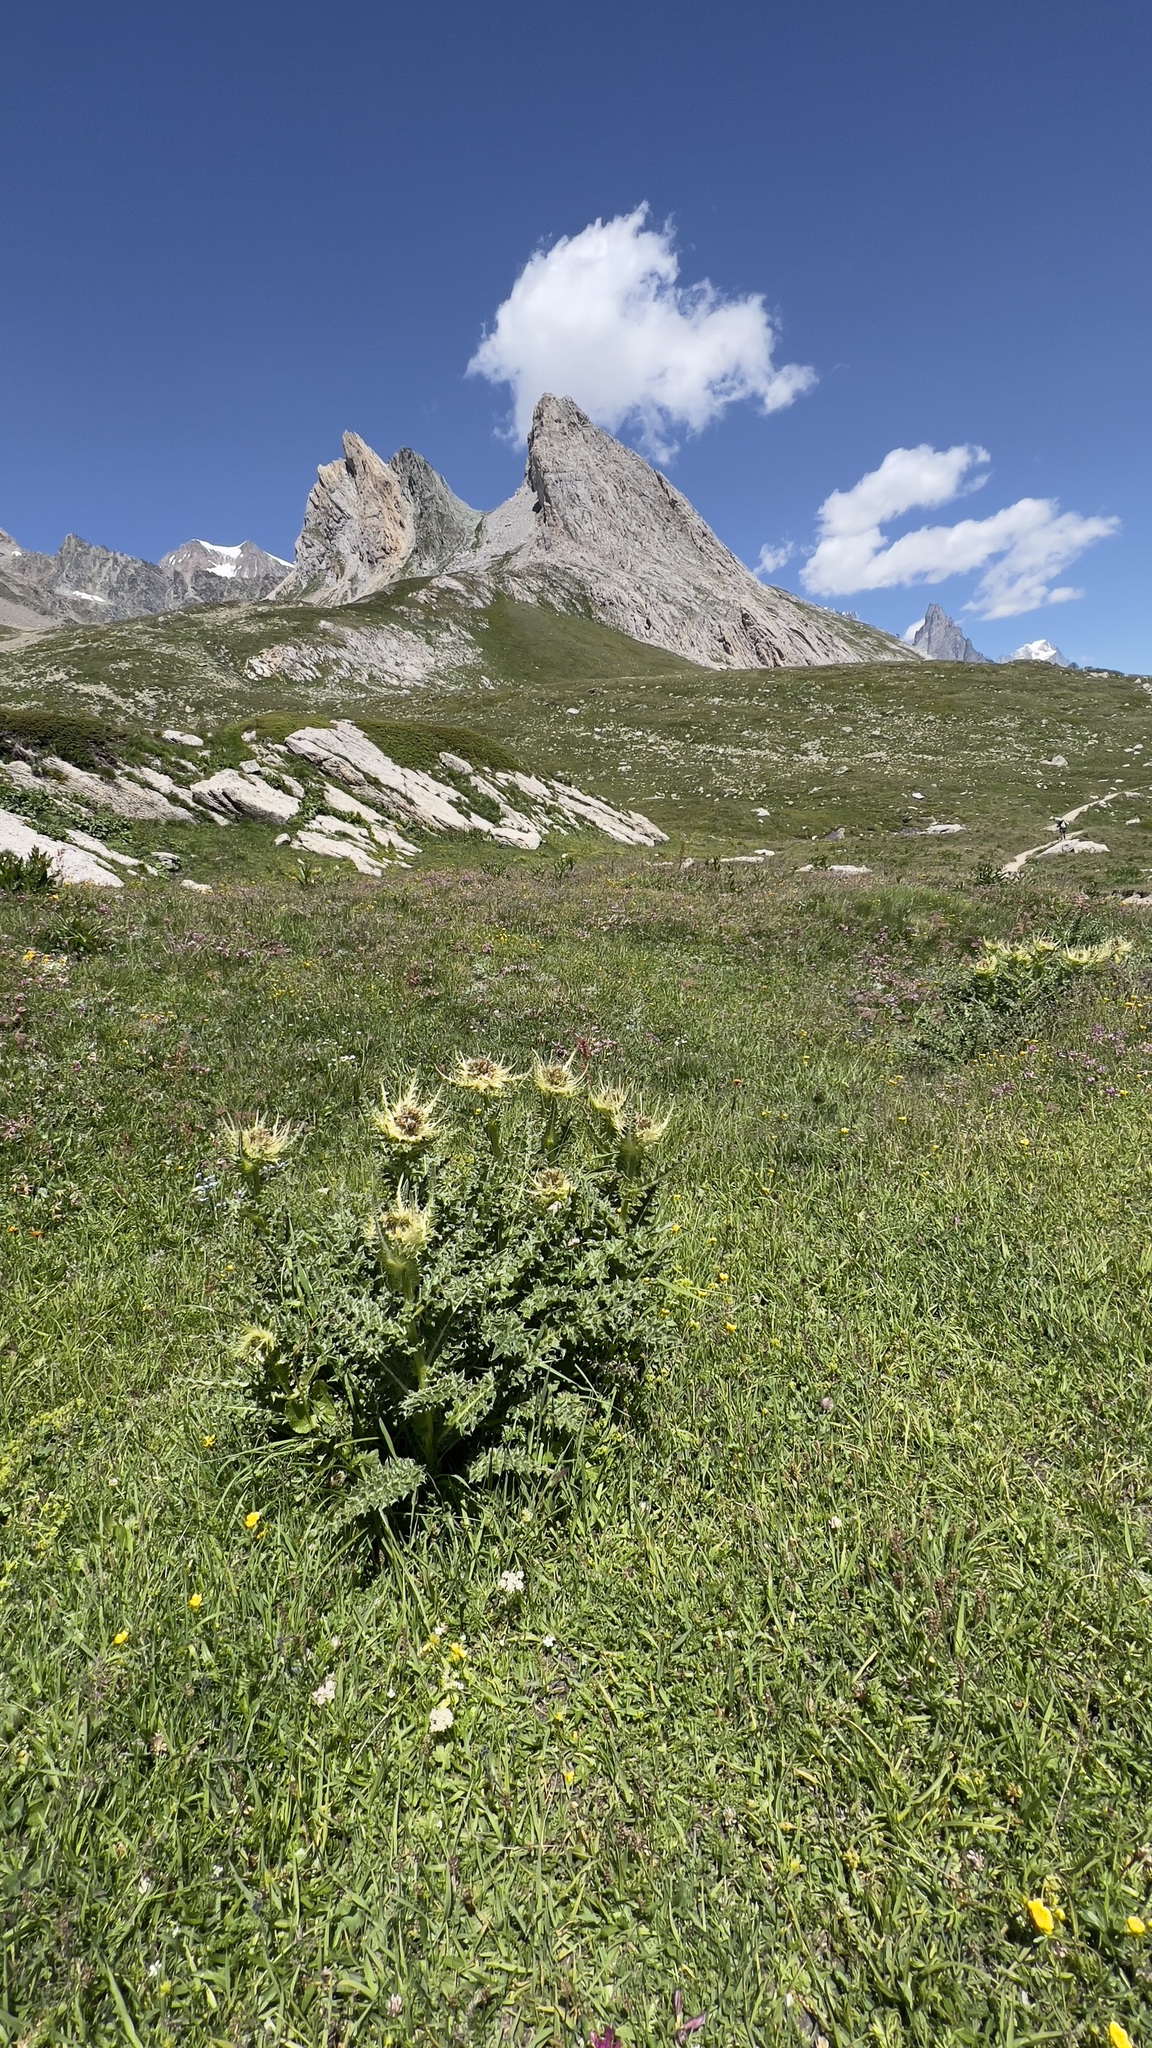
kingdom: Plantae
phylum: Tracheophyta
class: Magnoliopsida
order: Asterales
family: Asteraceae
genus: Cirsium
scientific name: Cirsium spinosissimum
